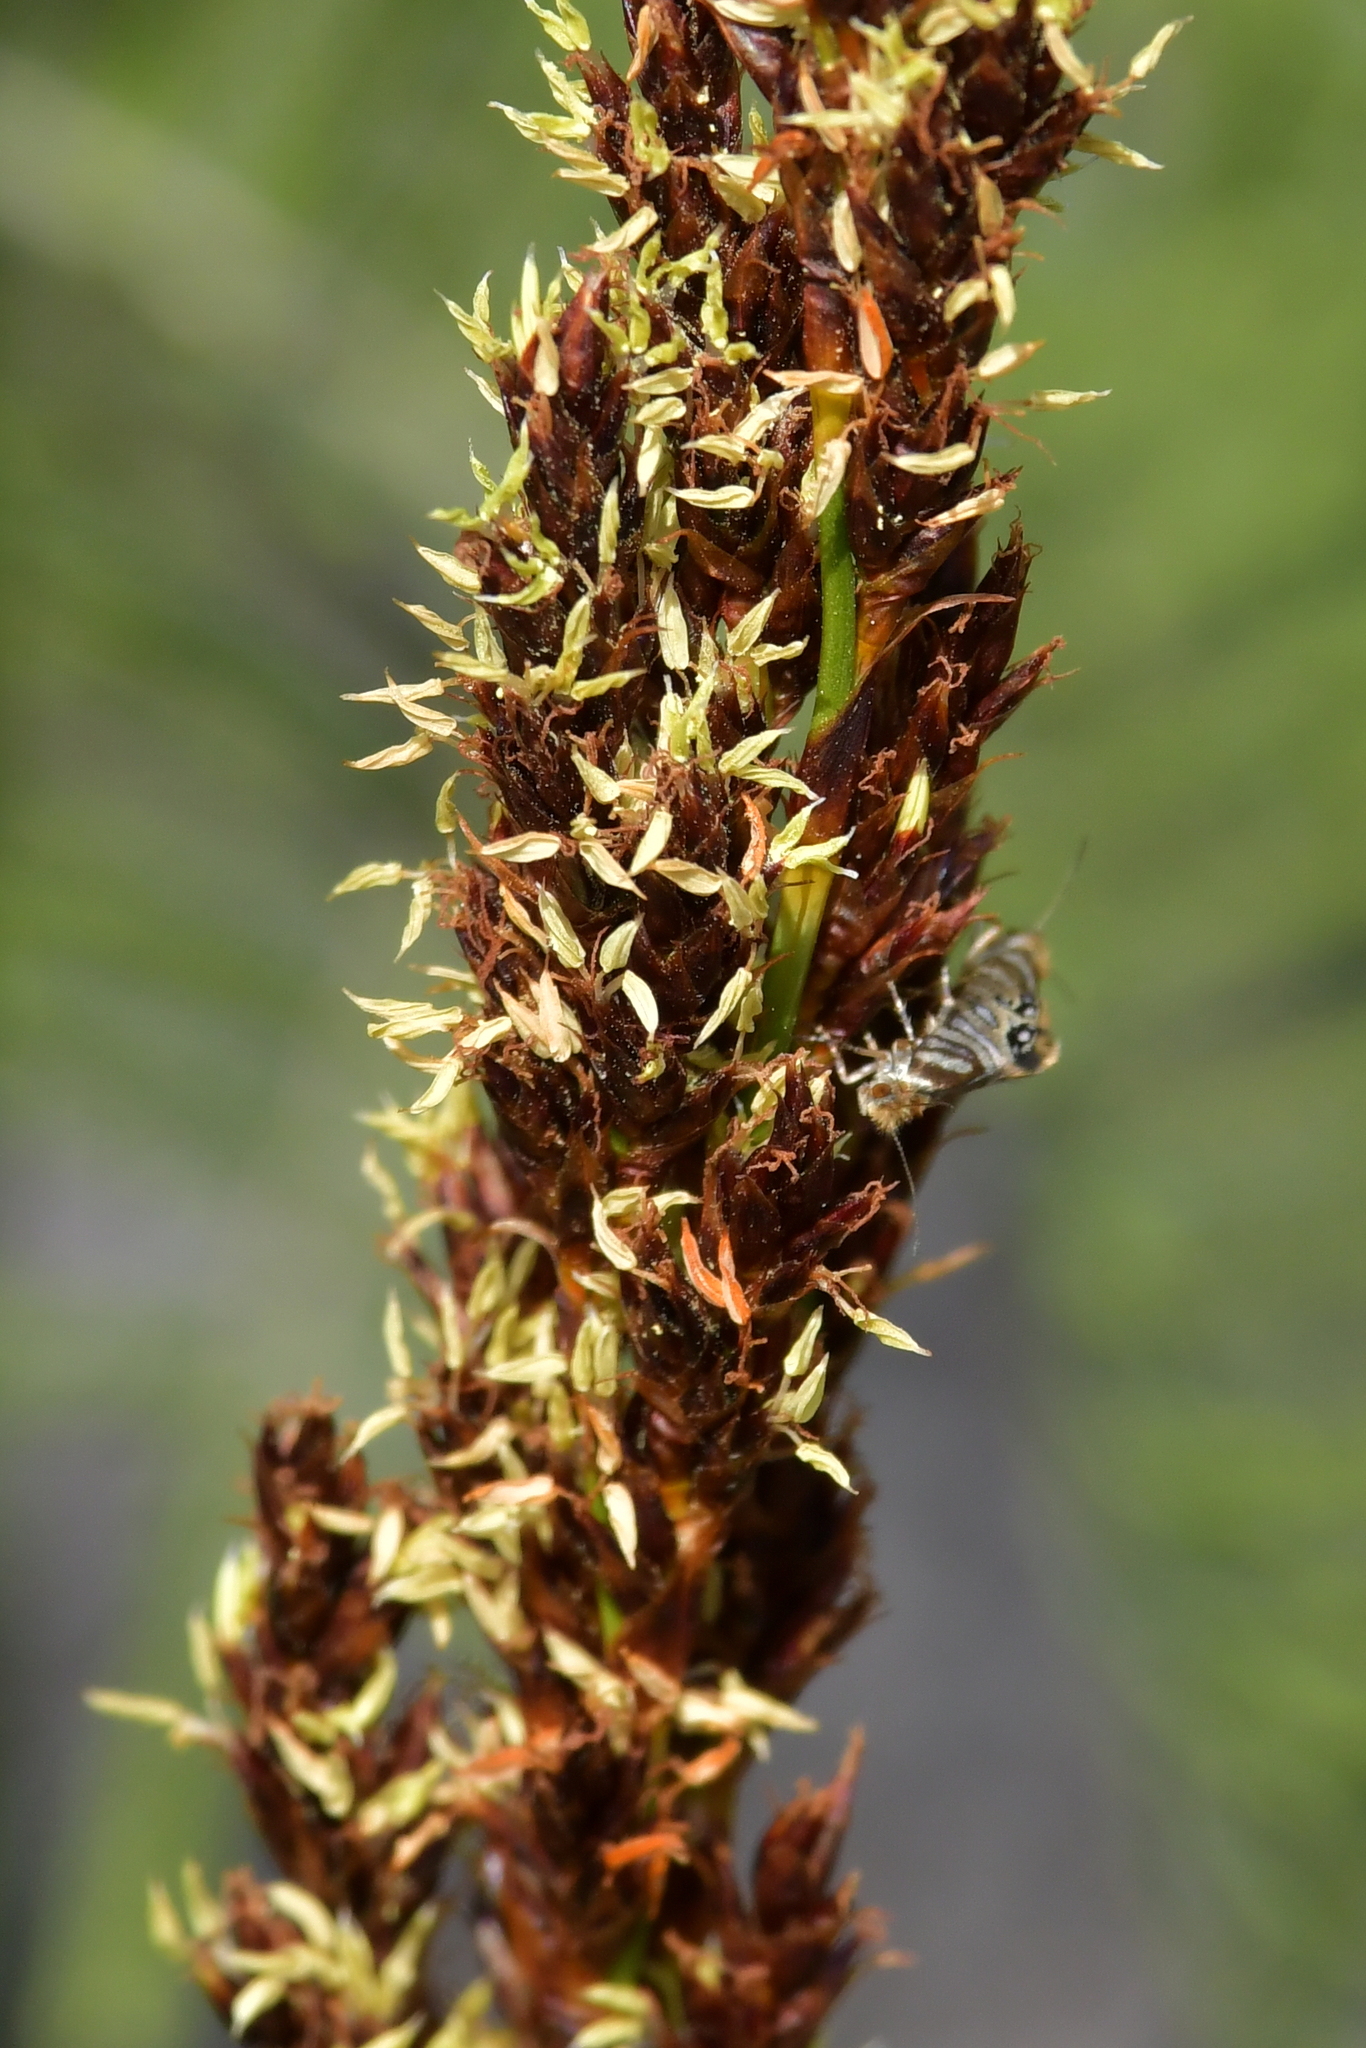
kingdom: Animalia
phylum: Arthropoda
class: Insecta
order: Lepidoptera
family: Micropterigidae
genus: Sabatinca
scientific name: Sabatinca doroxena
